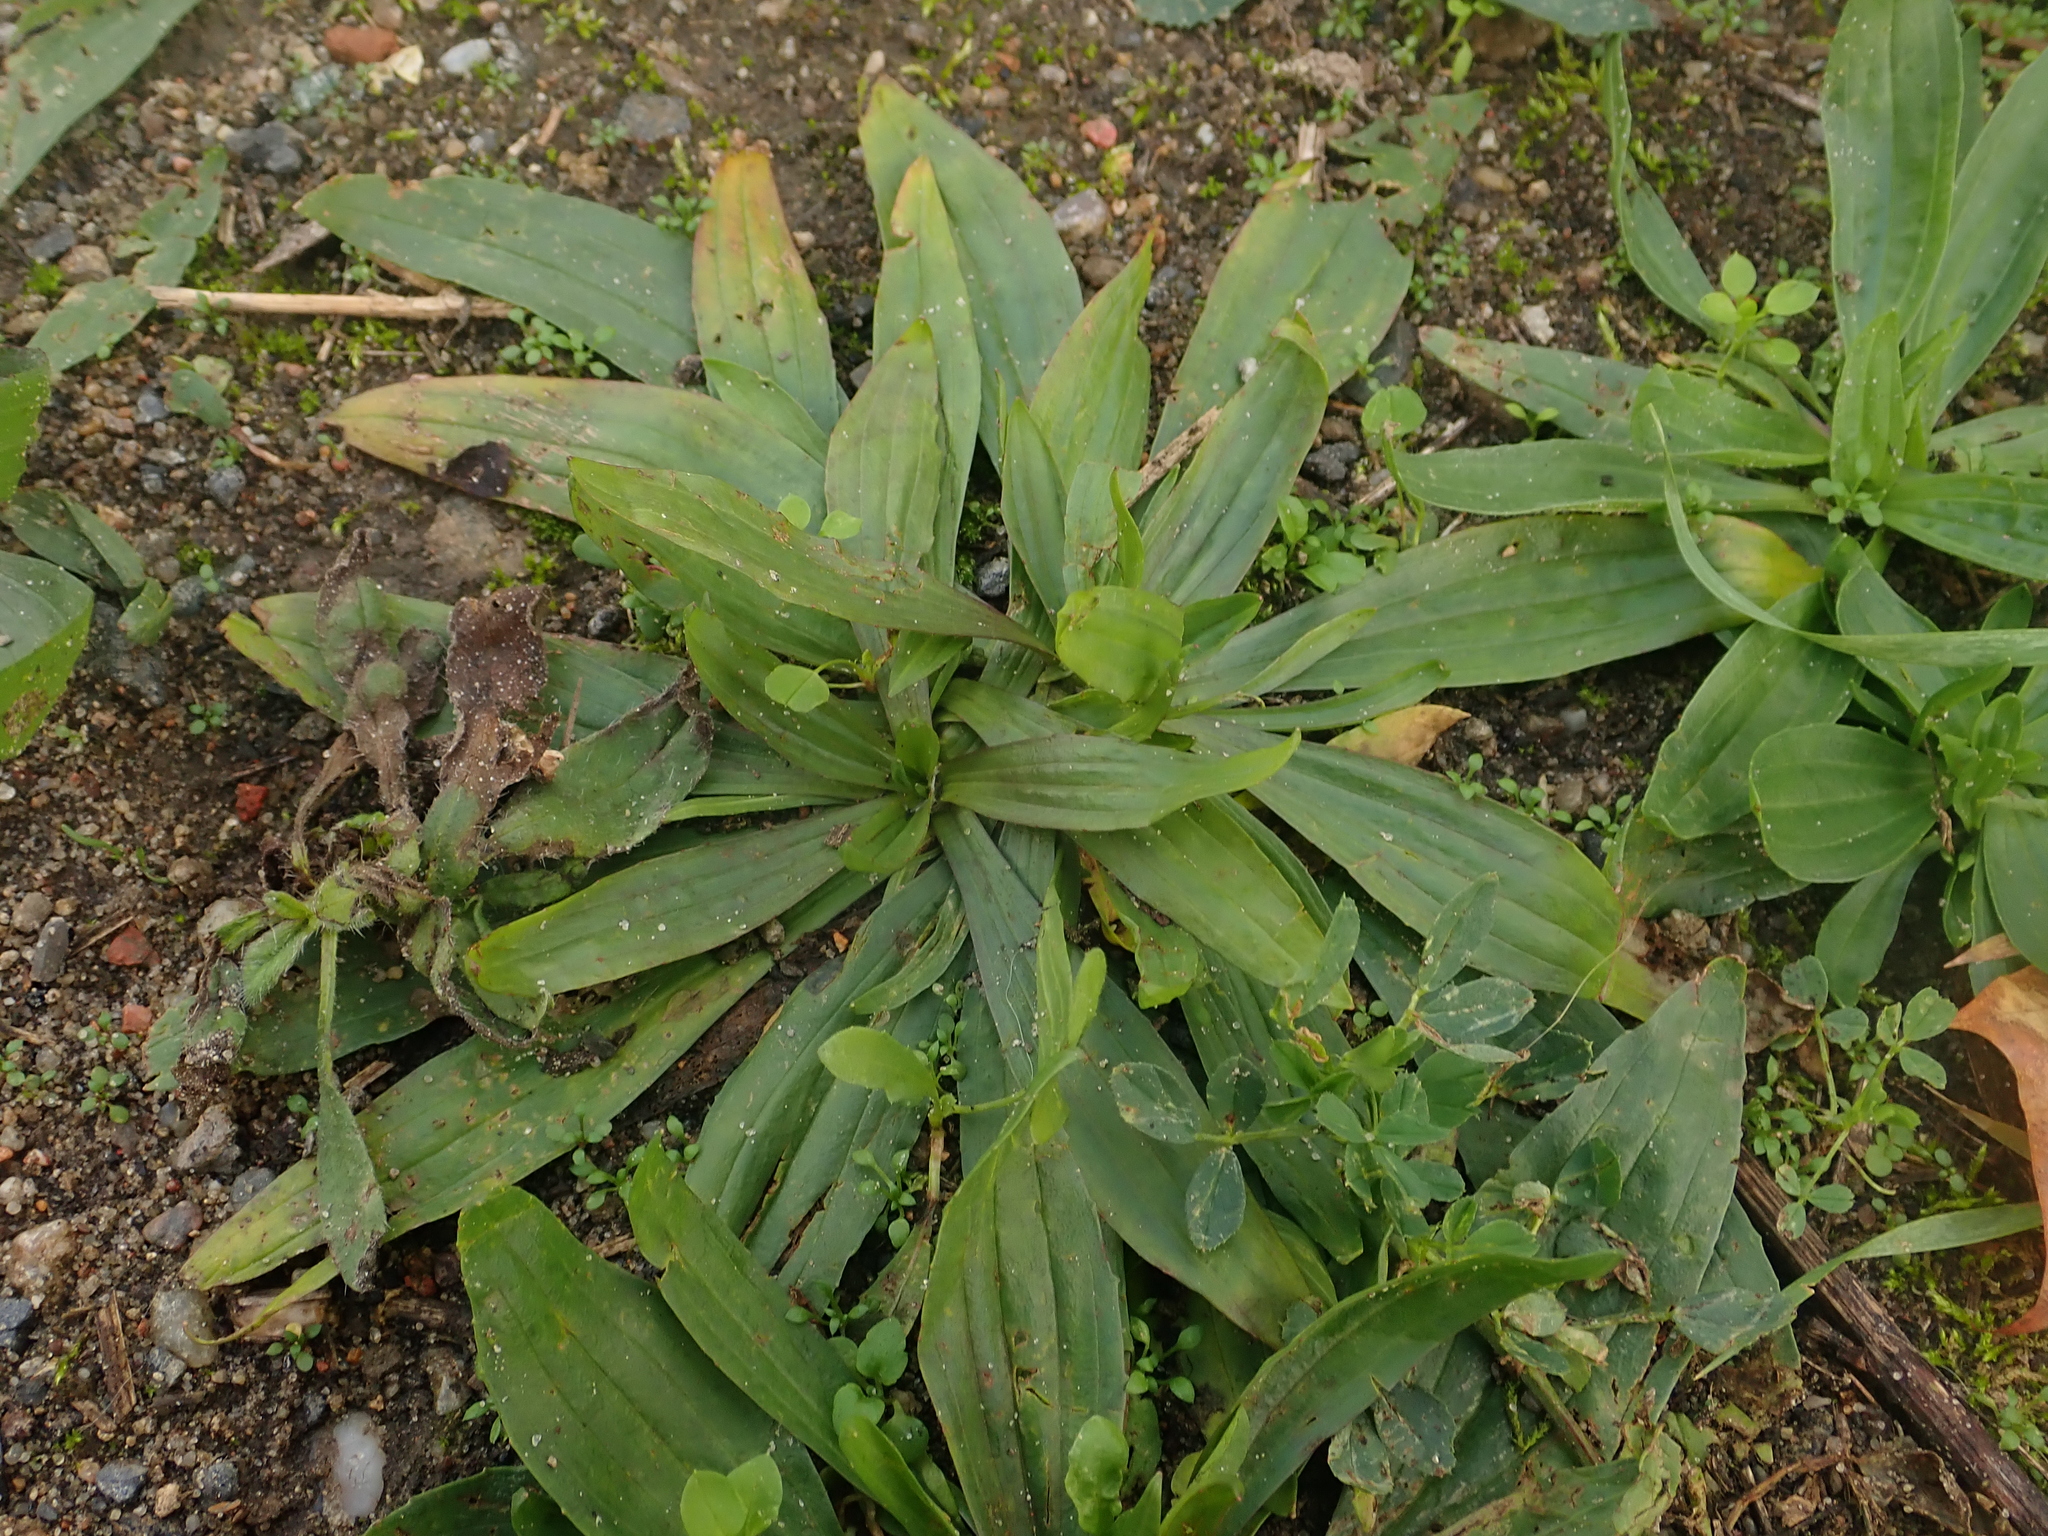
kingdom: Plantae
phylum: Tracheophyta
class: Magnoliopsida
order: Lamiales
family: Plantaginaceae
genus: Plantago
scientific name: Plantago lanceolata
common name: Ribwort plantain
